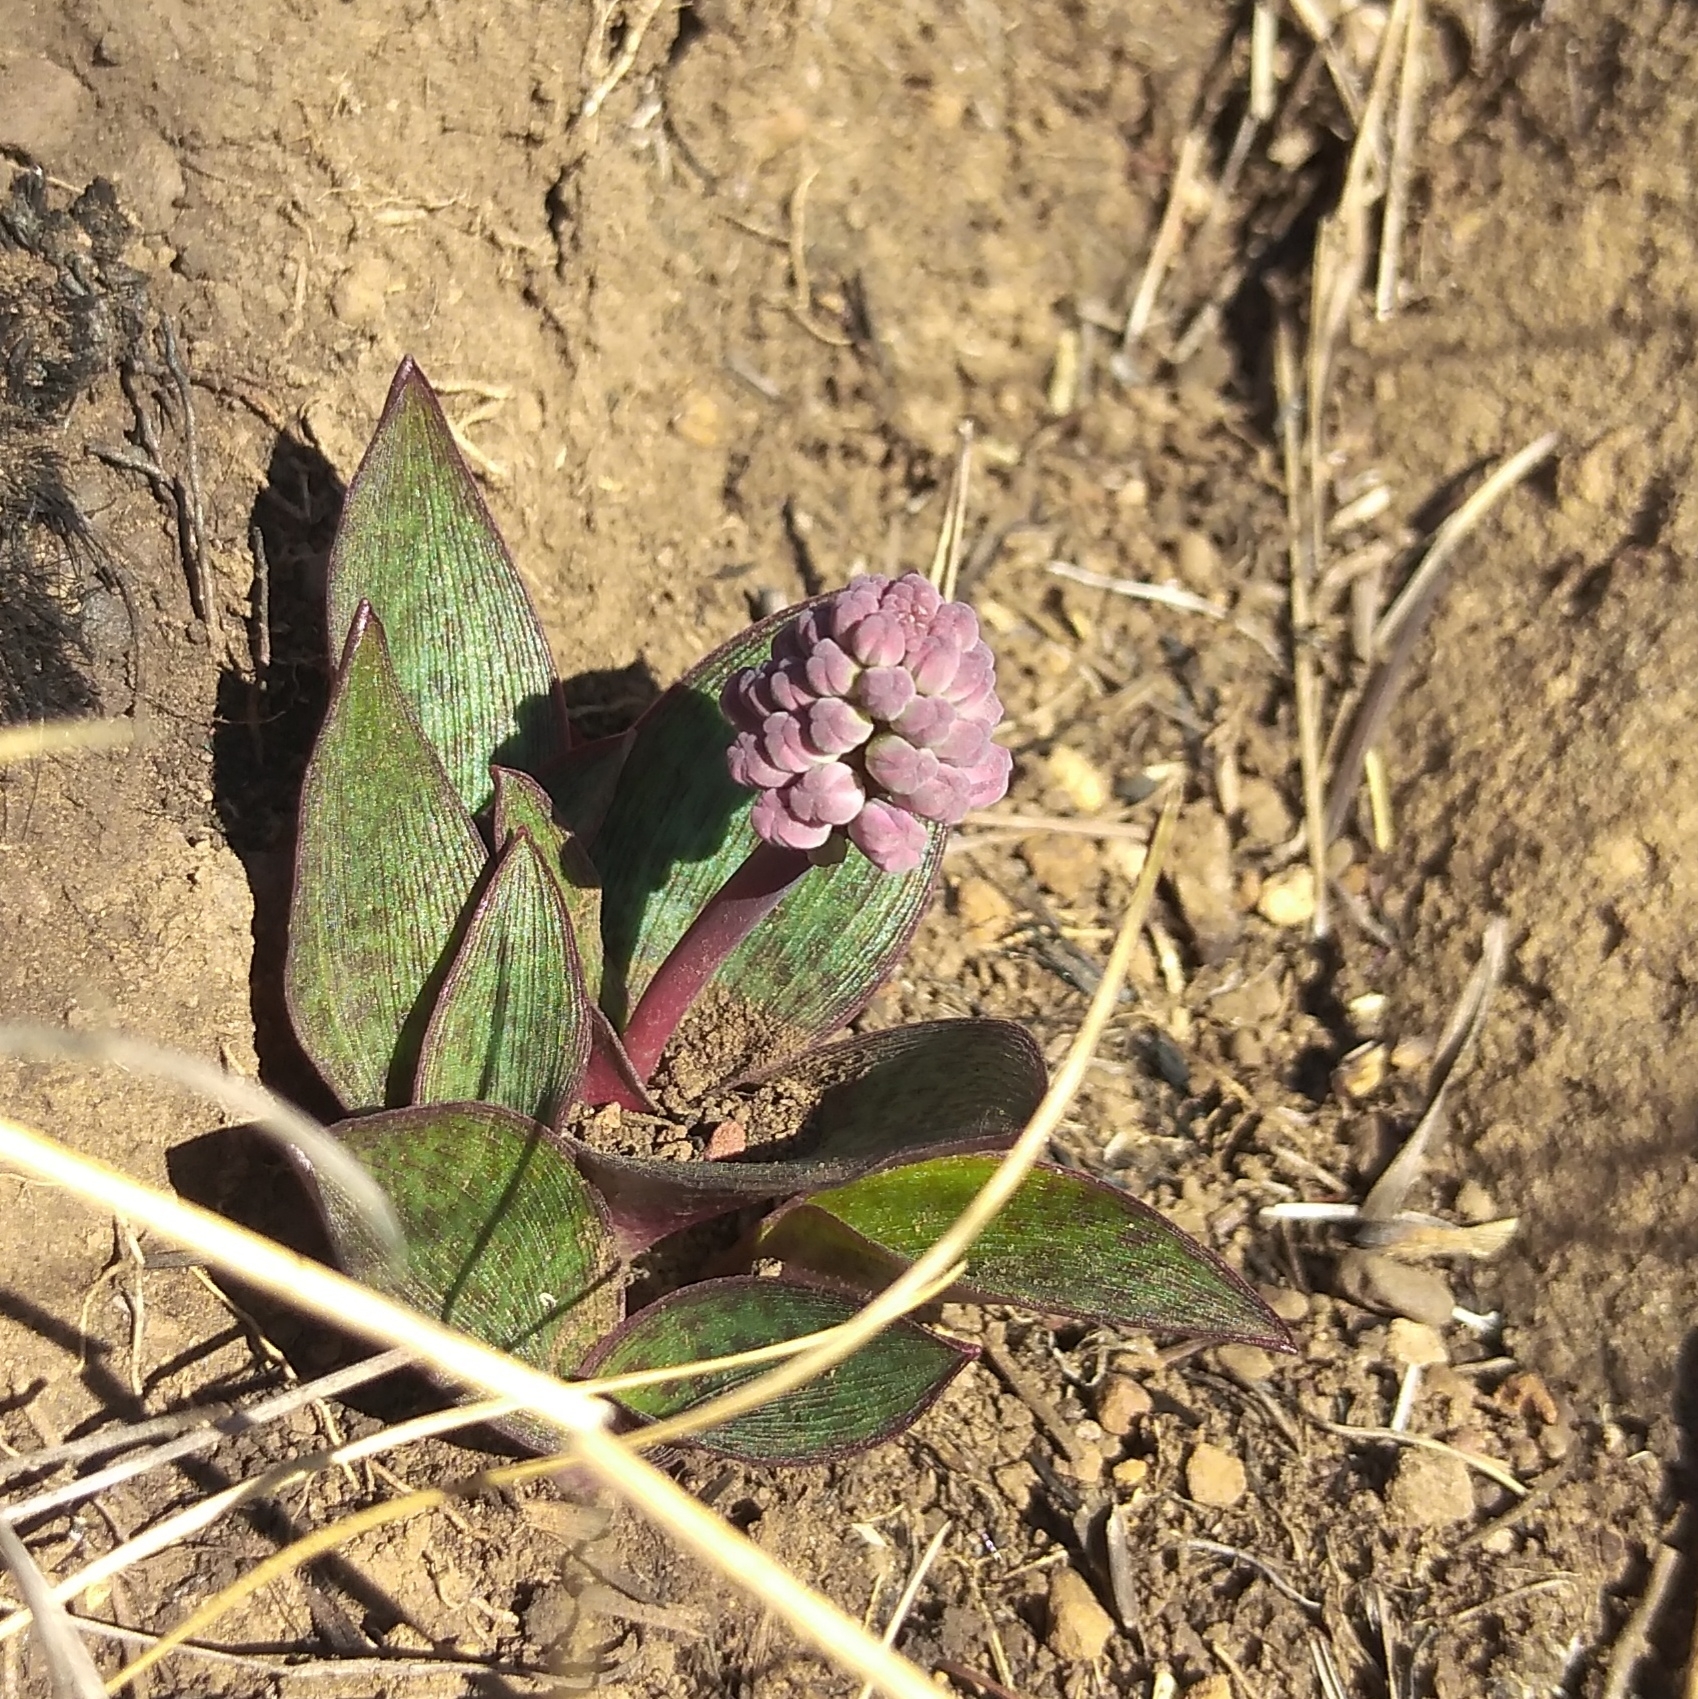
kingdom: Plantae
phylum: Tracheophyta
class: Liliopsida
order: Asparagales
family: Asparagaceae
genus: Ledebouria
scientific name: Ledebouria sandersonii
